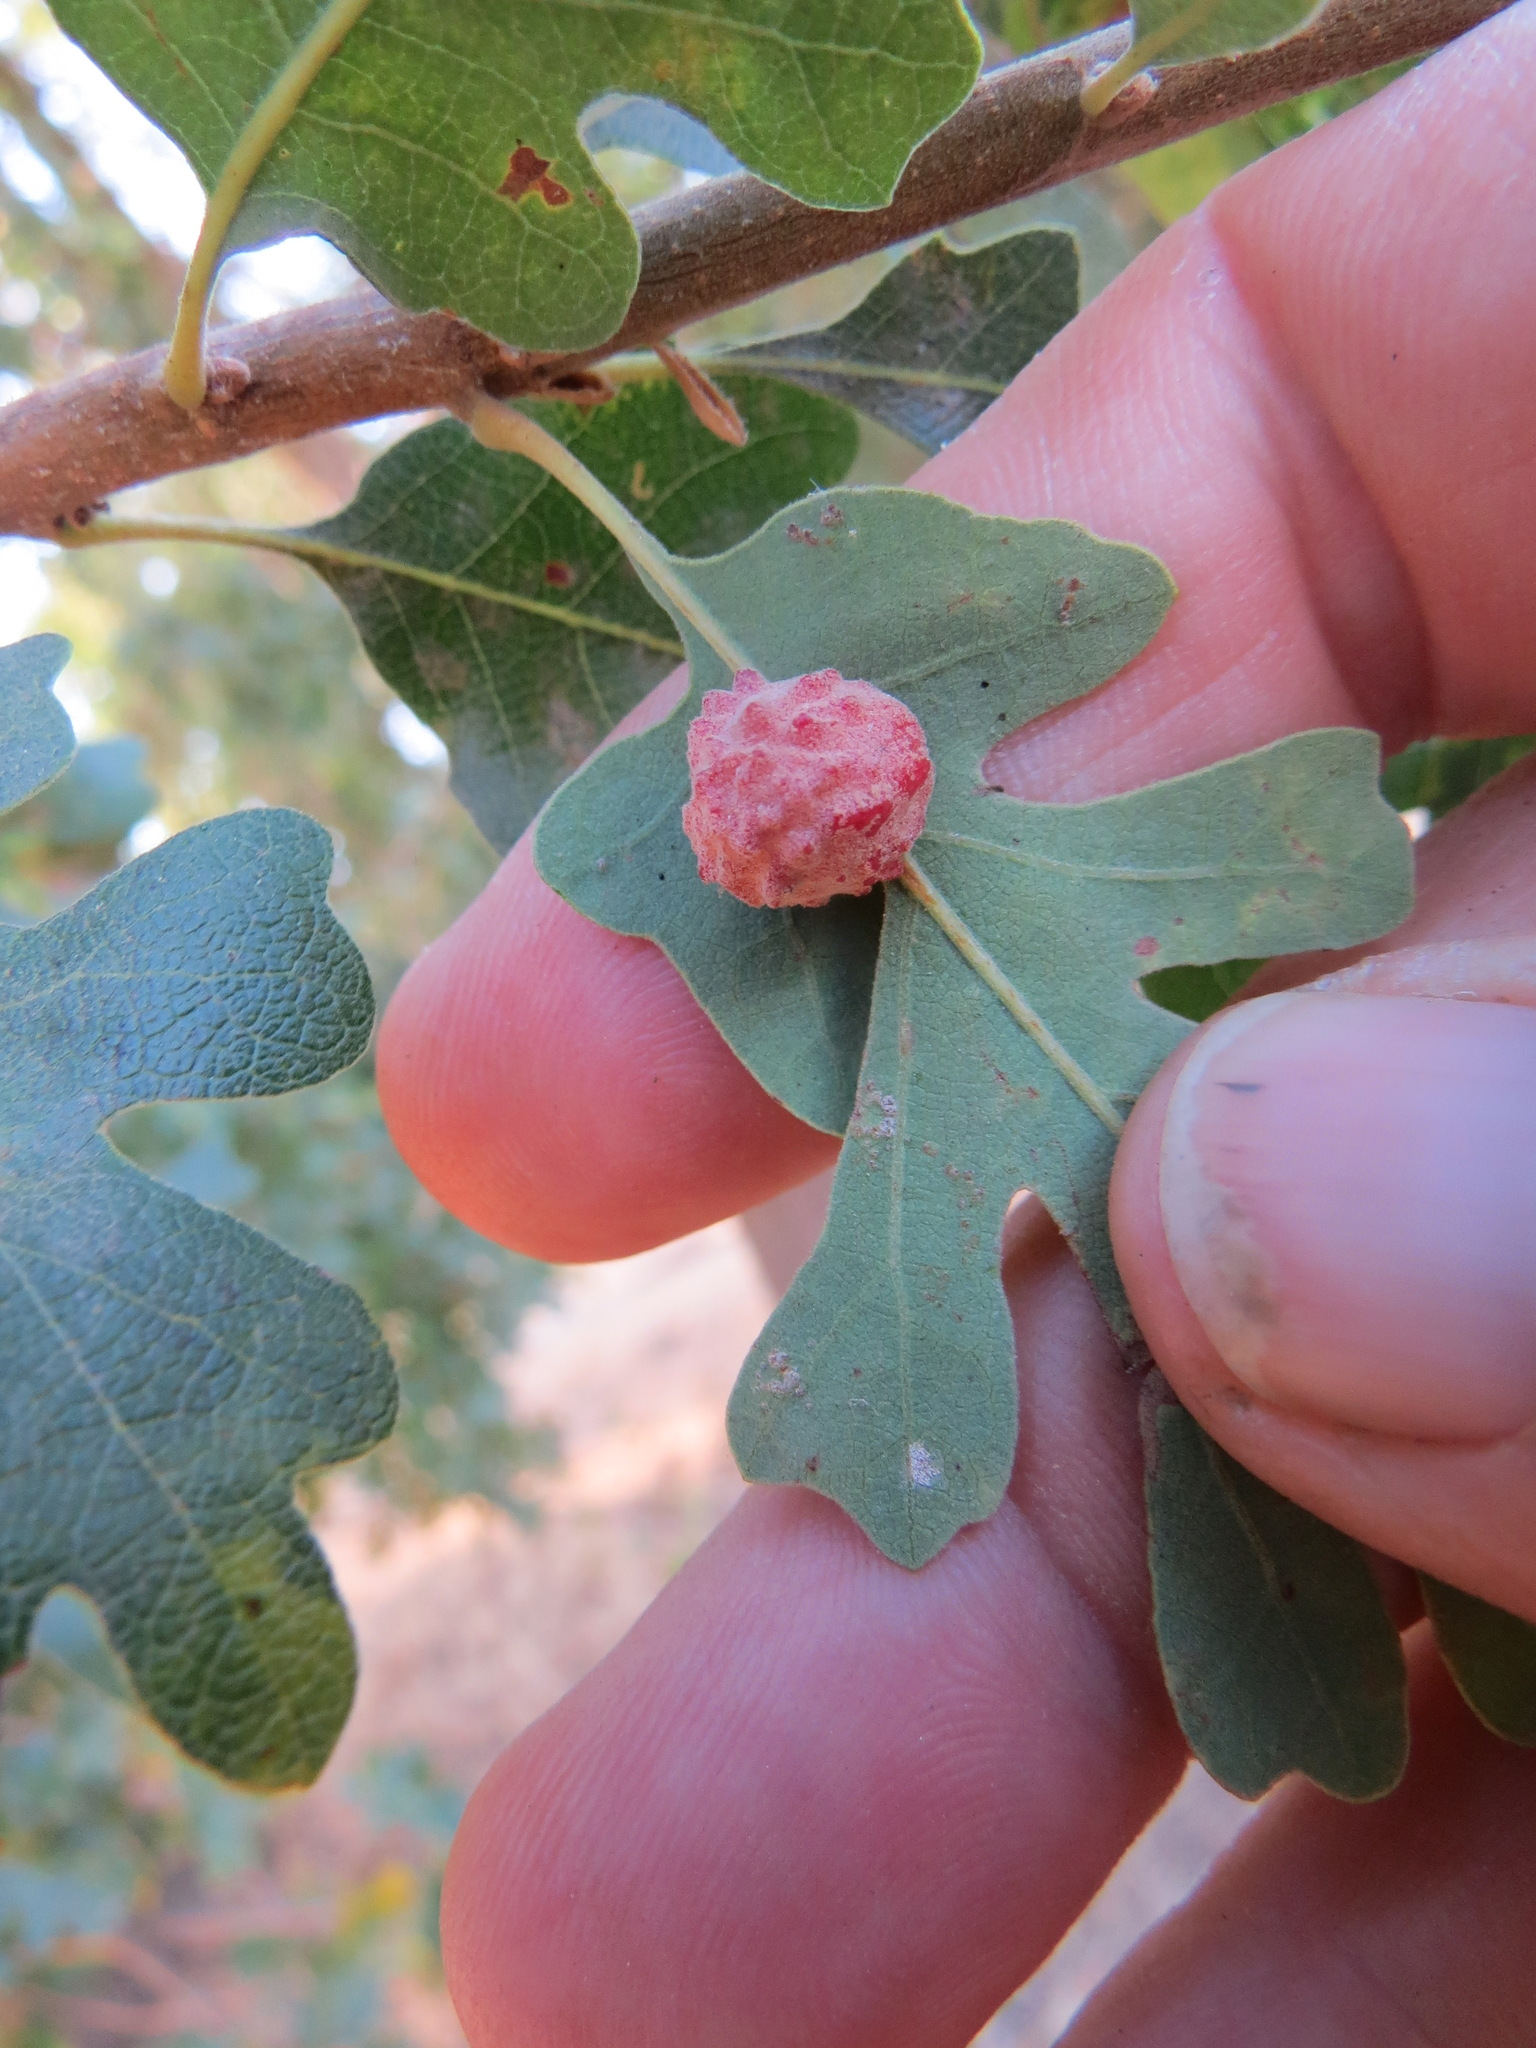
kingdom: Animalia
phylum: Arthropoda
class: Insecta
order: Hymenoptera
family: Cynipidae
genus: Cynips
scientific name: Cynips conspicua
